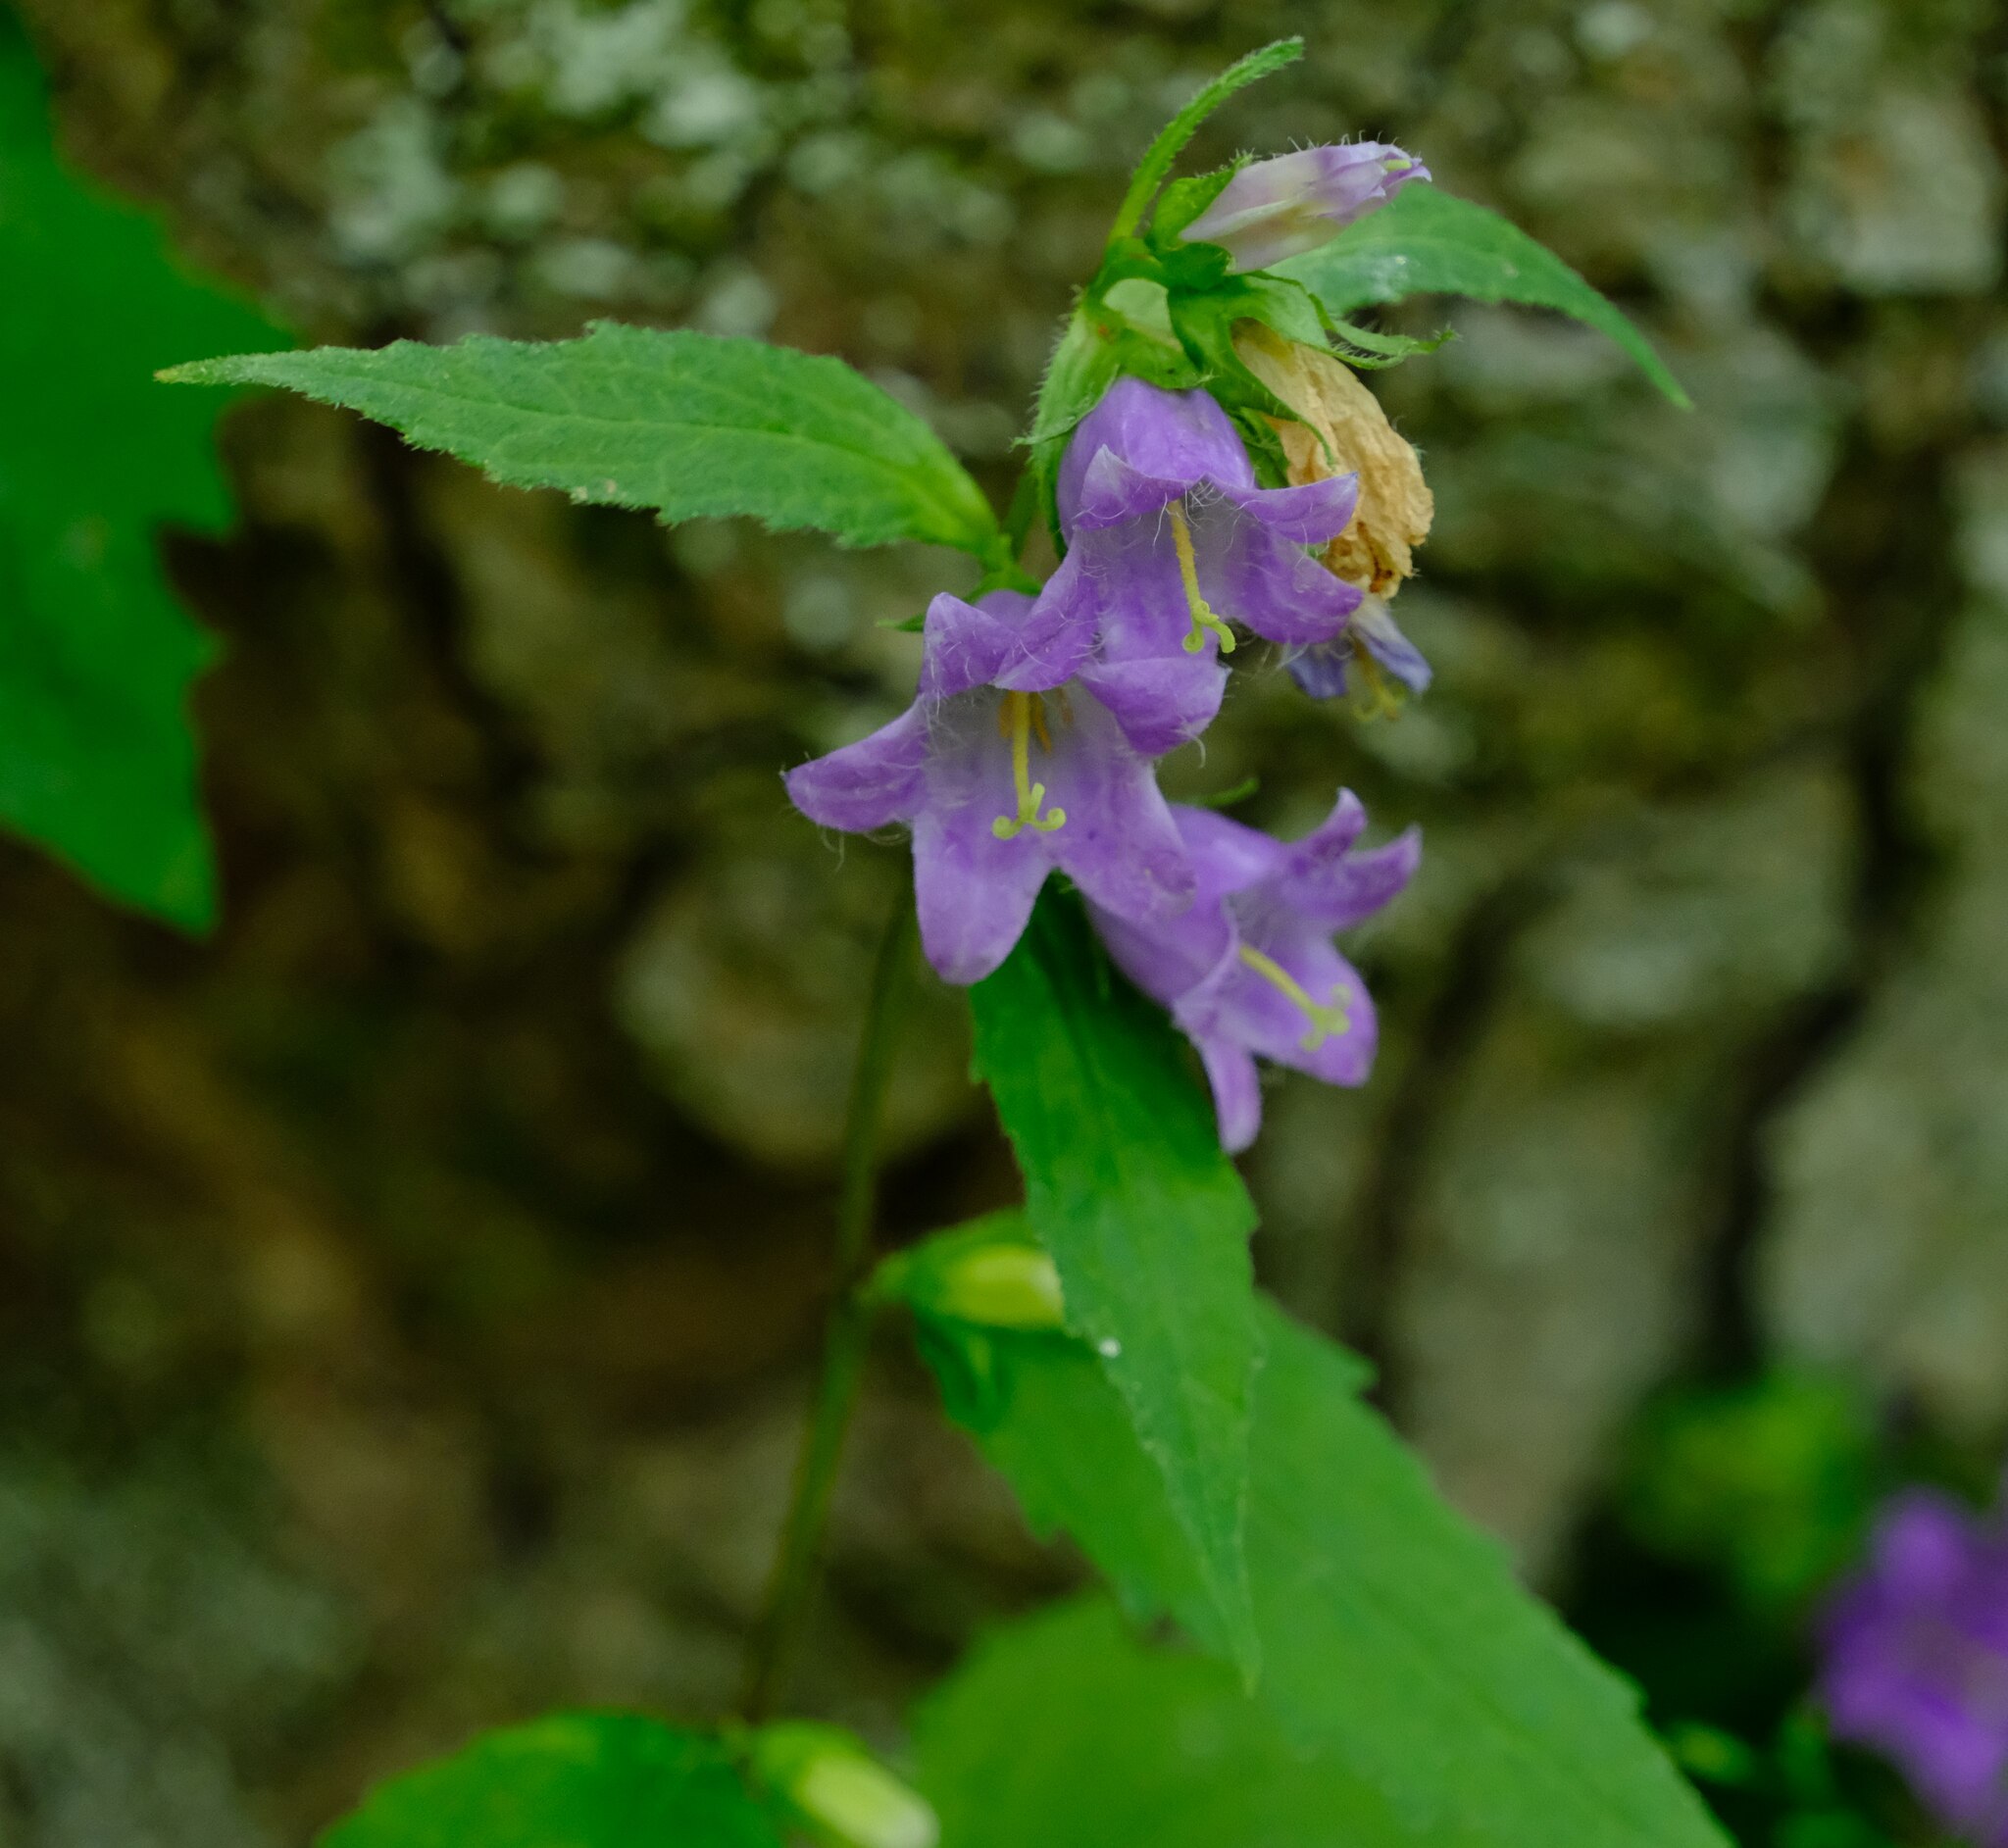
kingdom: Plantae
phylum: Tracheophyta
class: Magnoliopsida
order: Asterales
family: Campanulaceae
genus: Campanula
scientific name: Campanula trachelium
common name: Nettle-leaved bellflower
